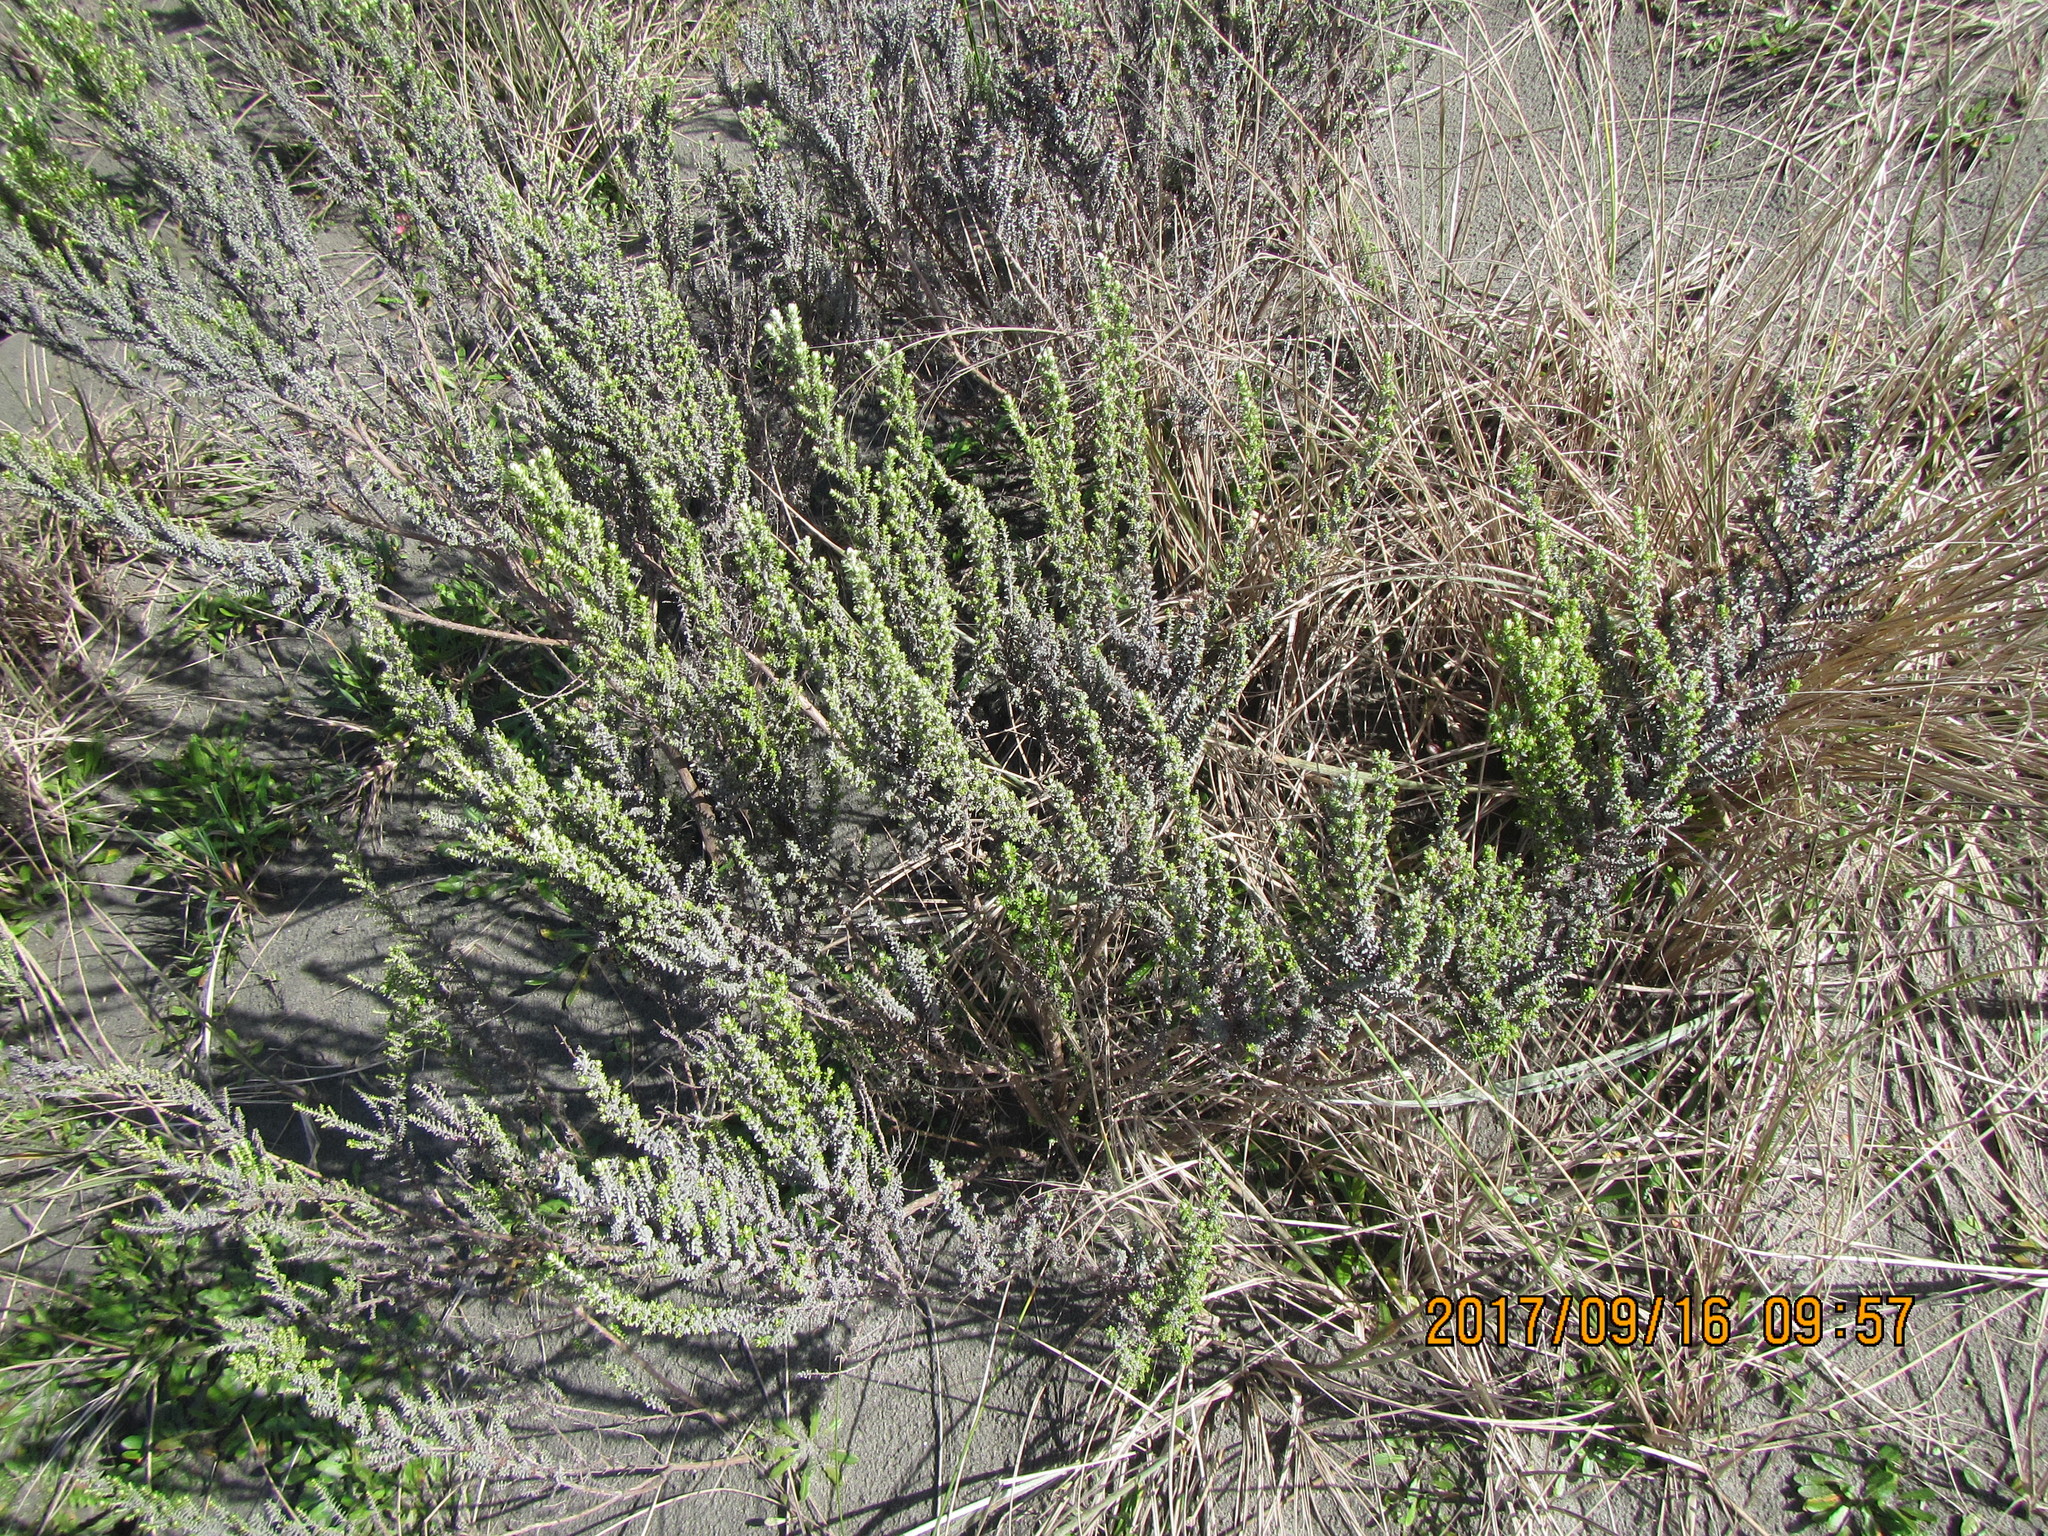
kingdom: Plantae
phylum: Tracheophyta
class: Magnoliopsida
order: Asterales
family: Asteraceae
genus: Ozothamnus
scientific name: Ozothamnus leptophyllus
